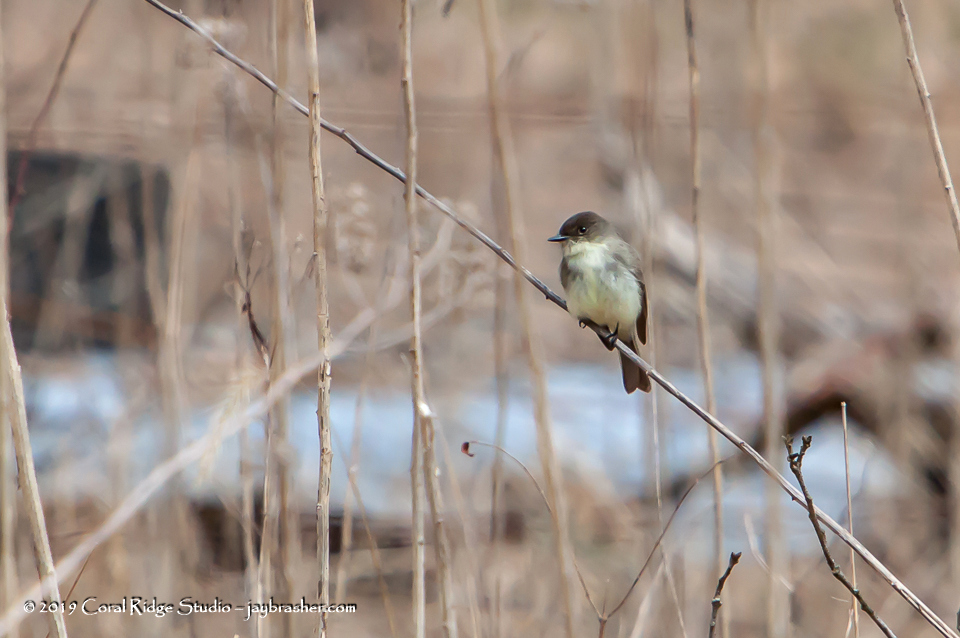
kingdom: Animalia
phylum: Chordata
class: Aves
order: Passeriformes
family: Tyrannidae
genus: Sayornis
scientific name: Sayornis phoebe
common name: Eastern phoebe
